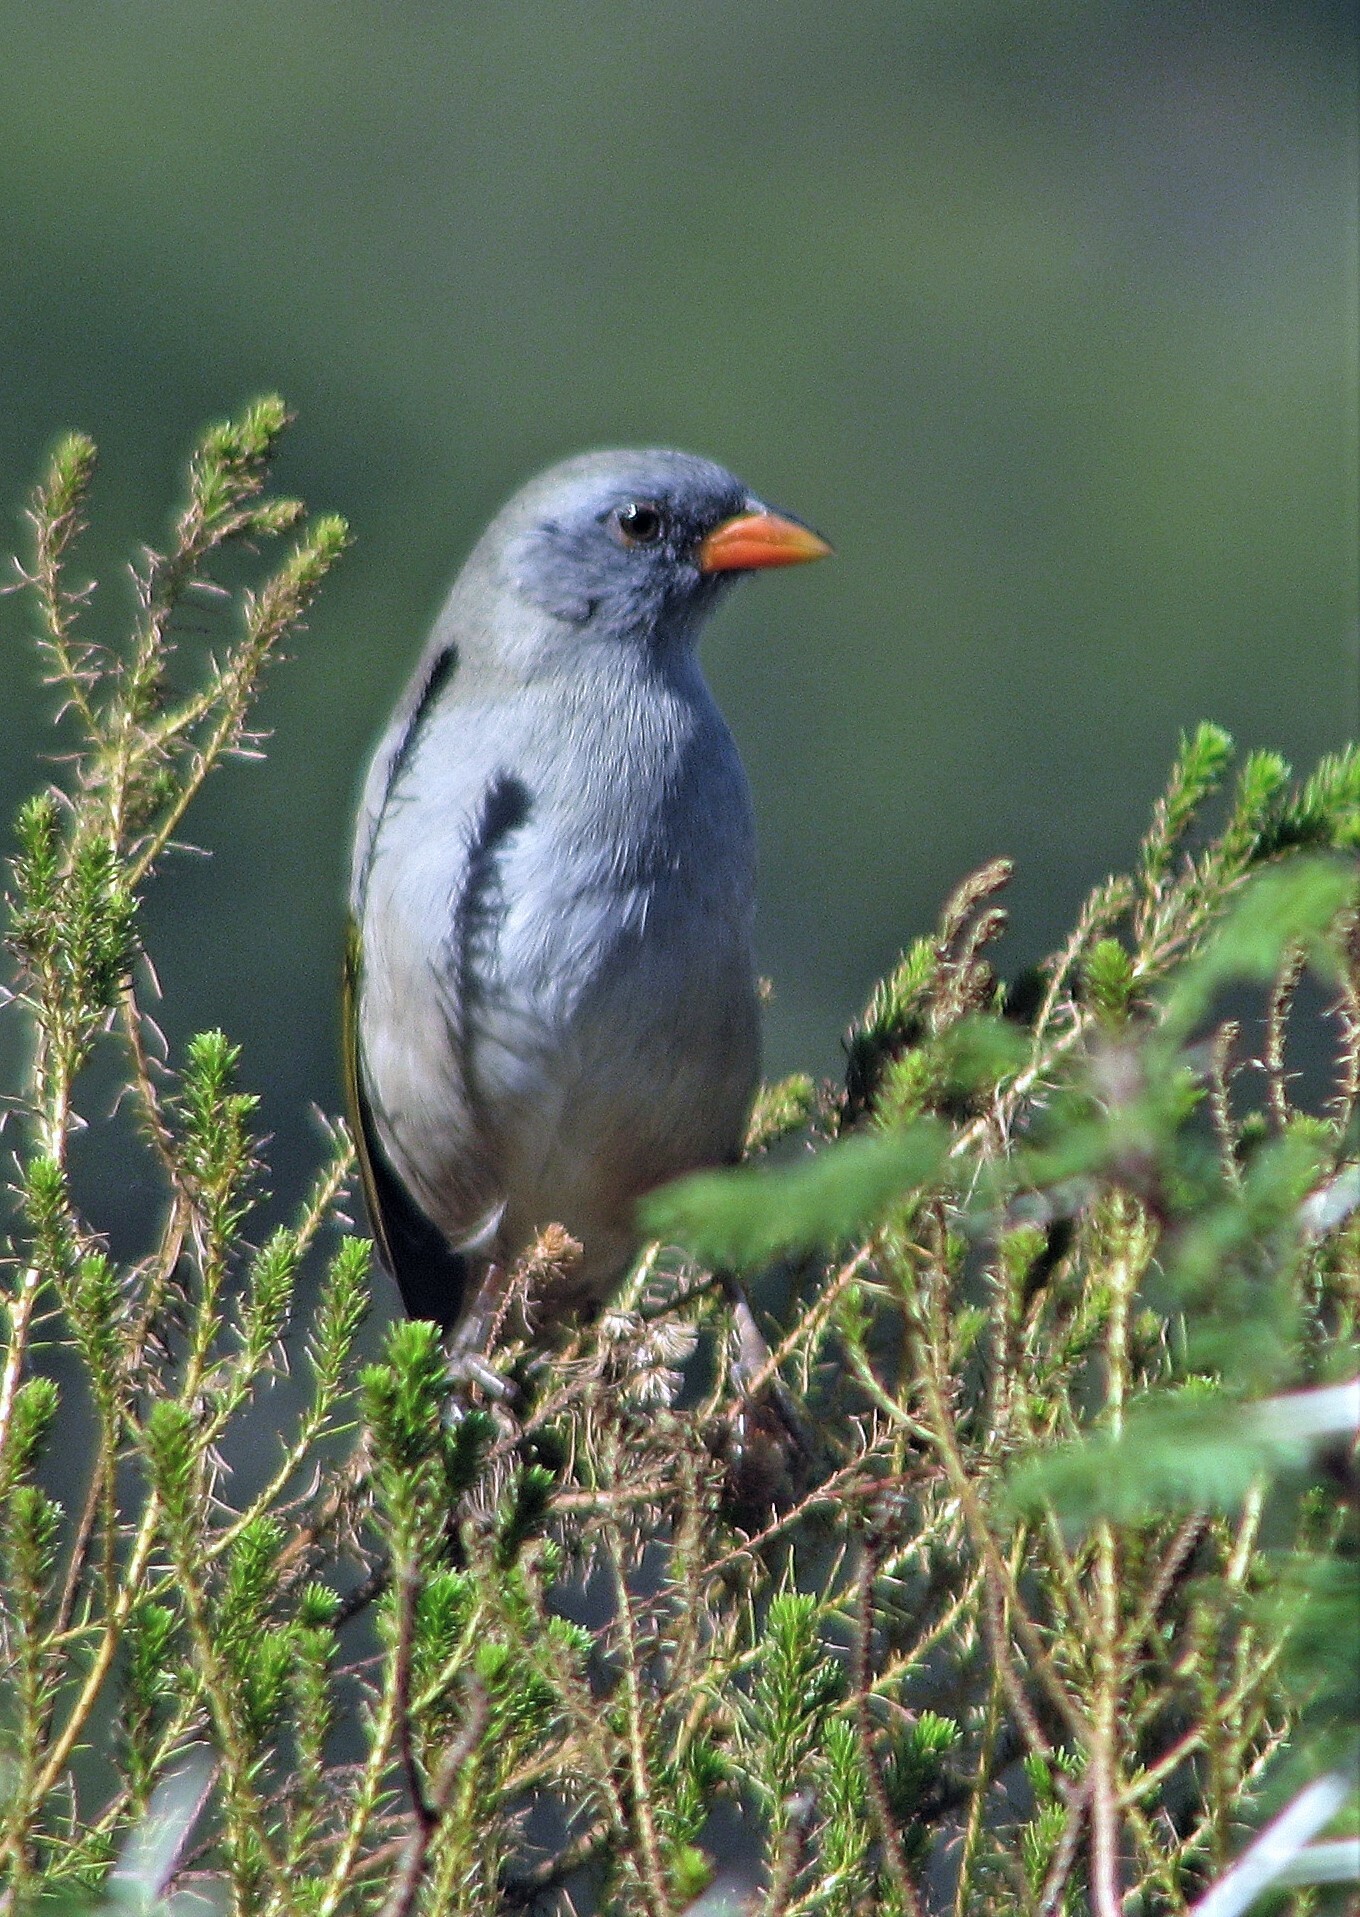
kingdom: Animalia
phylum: Chordata
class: Aves
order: Passeriformes
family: Thraupidae
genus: Embernagra
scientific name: Embernagra platensis
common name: Pampa finch
